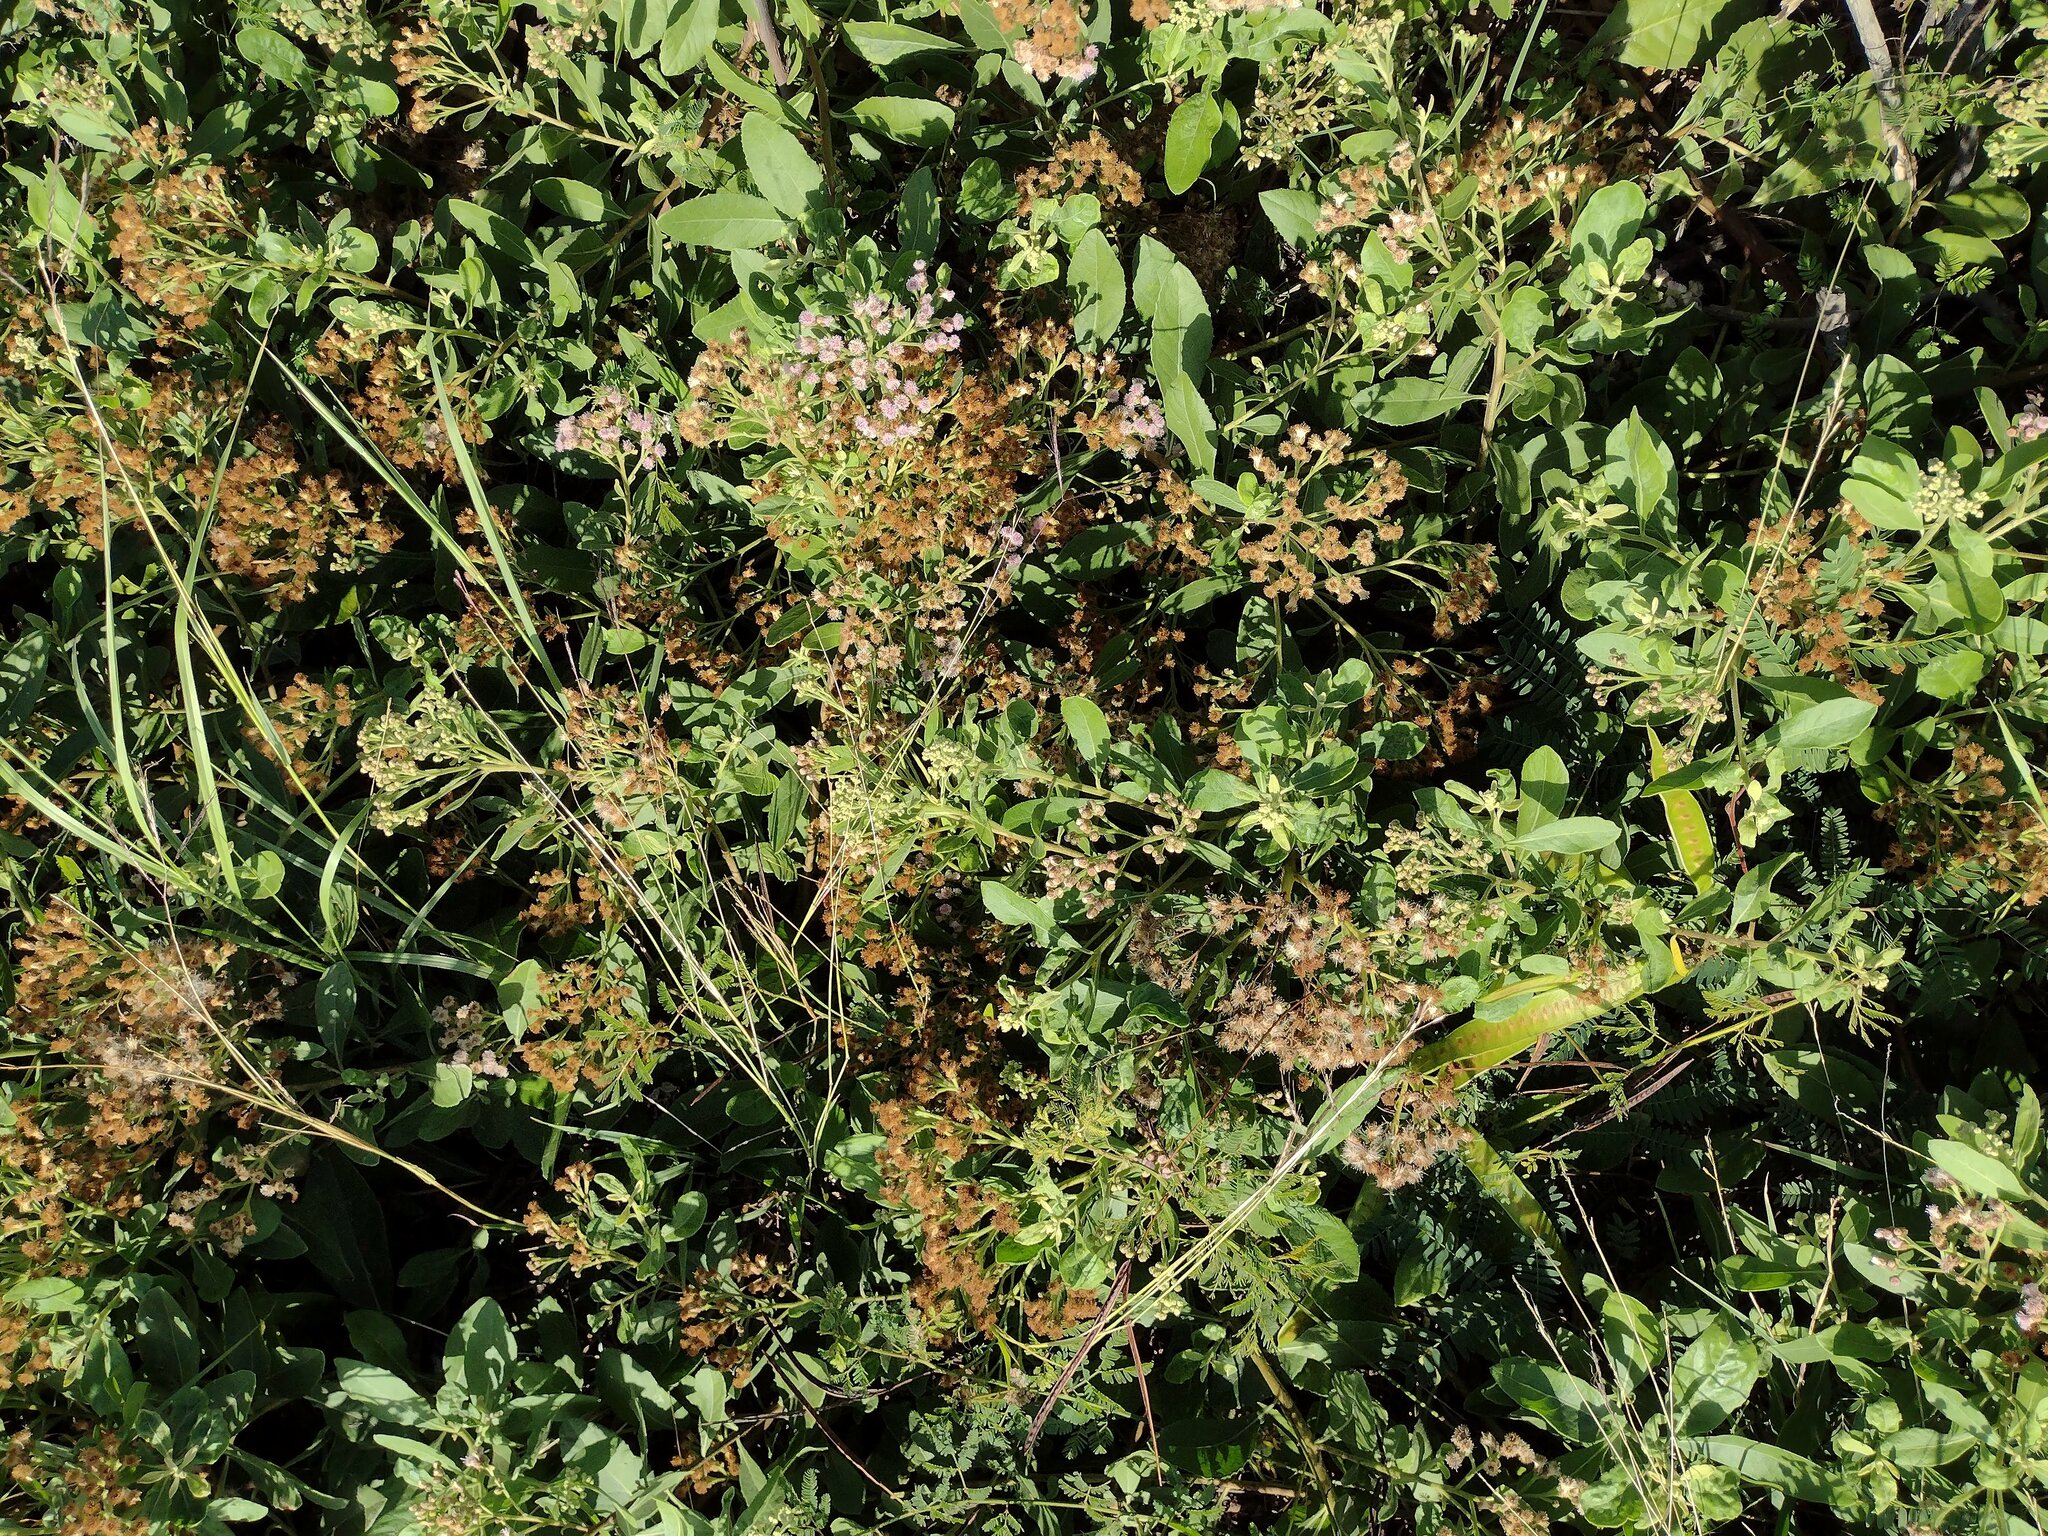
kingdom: Plantae
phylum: Tracheophyta
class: Magnoliopsida
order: Asterales
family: Asteraceae
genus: Pluchea
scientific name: Pluchea fosbergii
